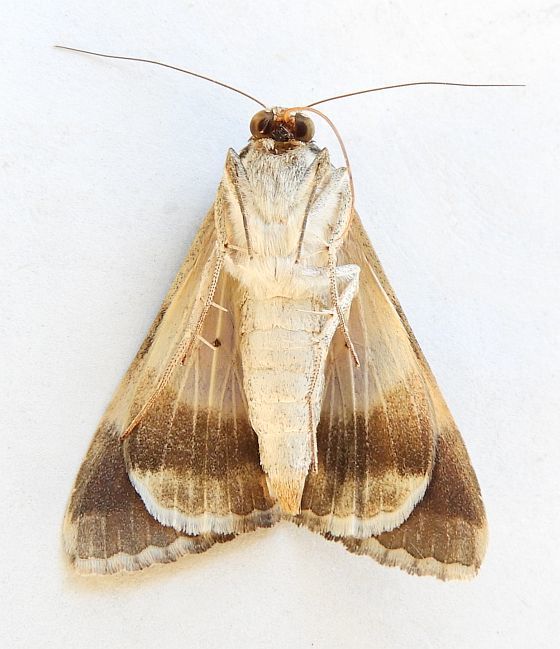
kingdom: Animalia
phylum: Arthropoda
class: Insecta
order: Lepidoptera
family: Erebidae
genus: Melipotis
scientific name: Melipotis indomita
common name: Moth
